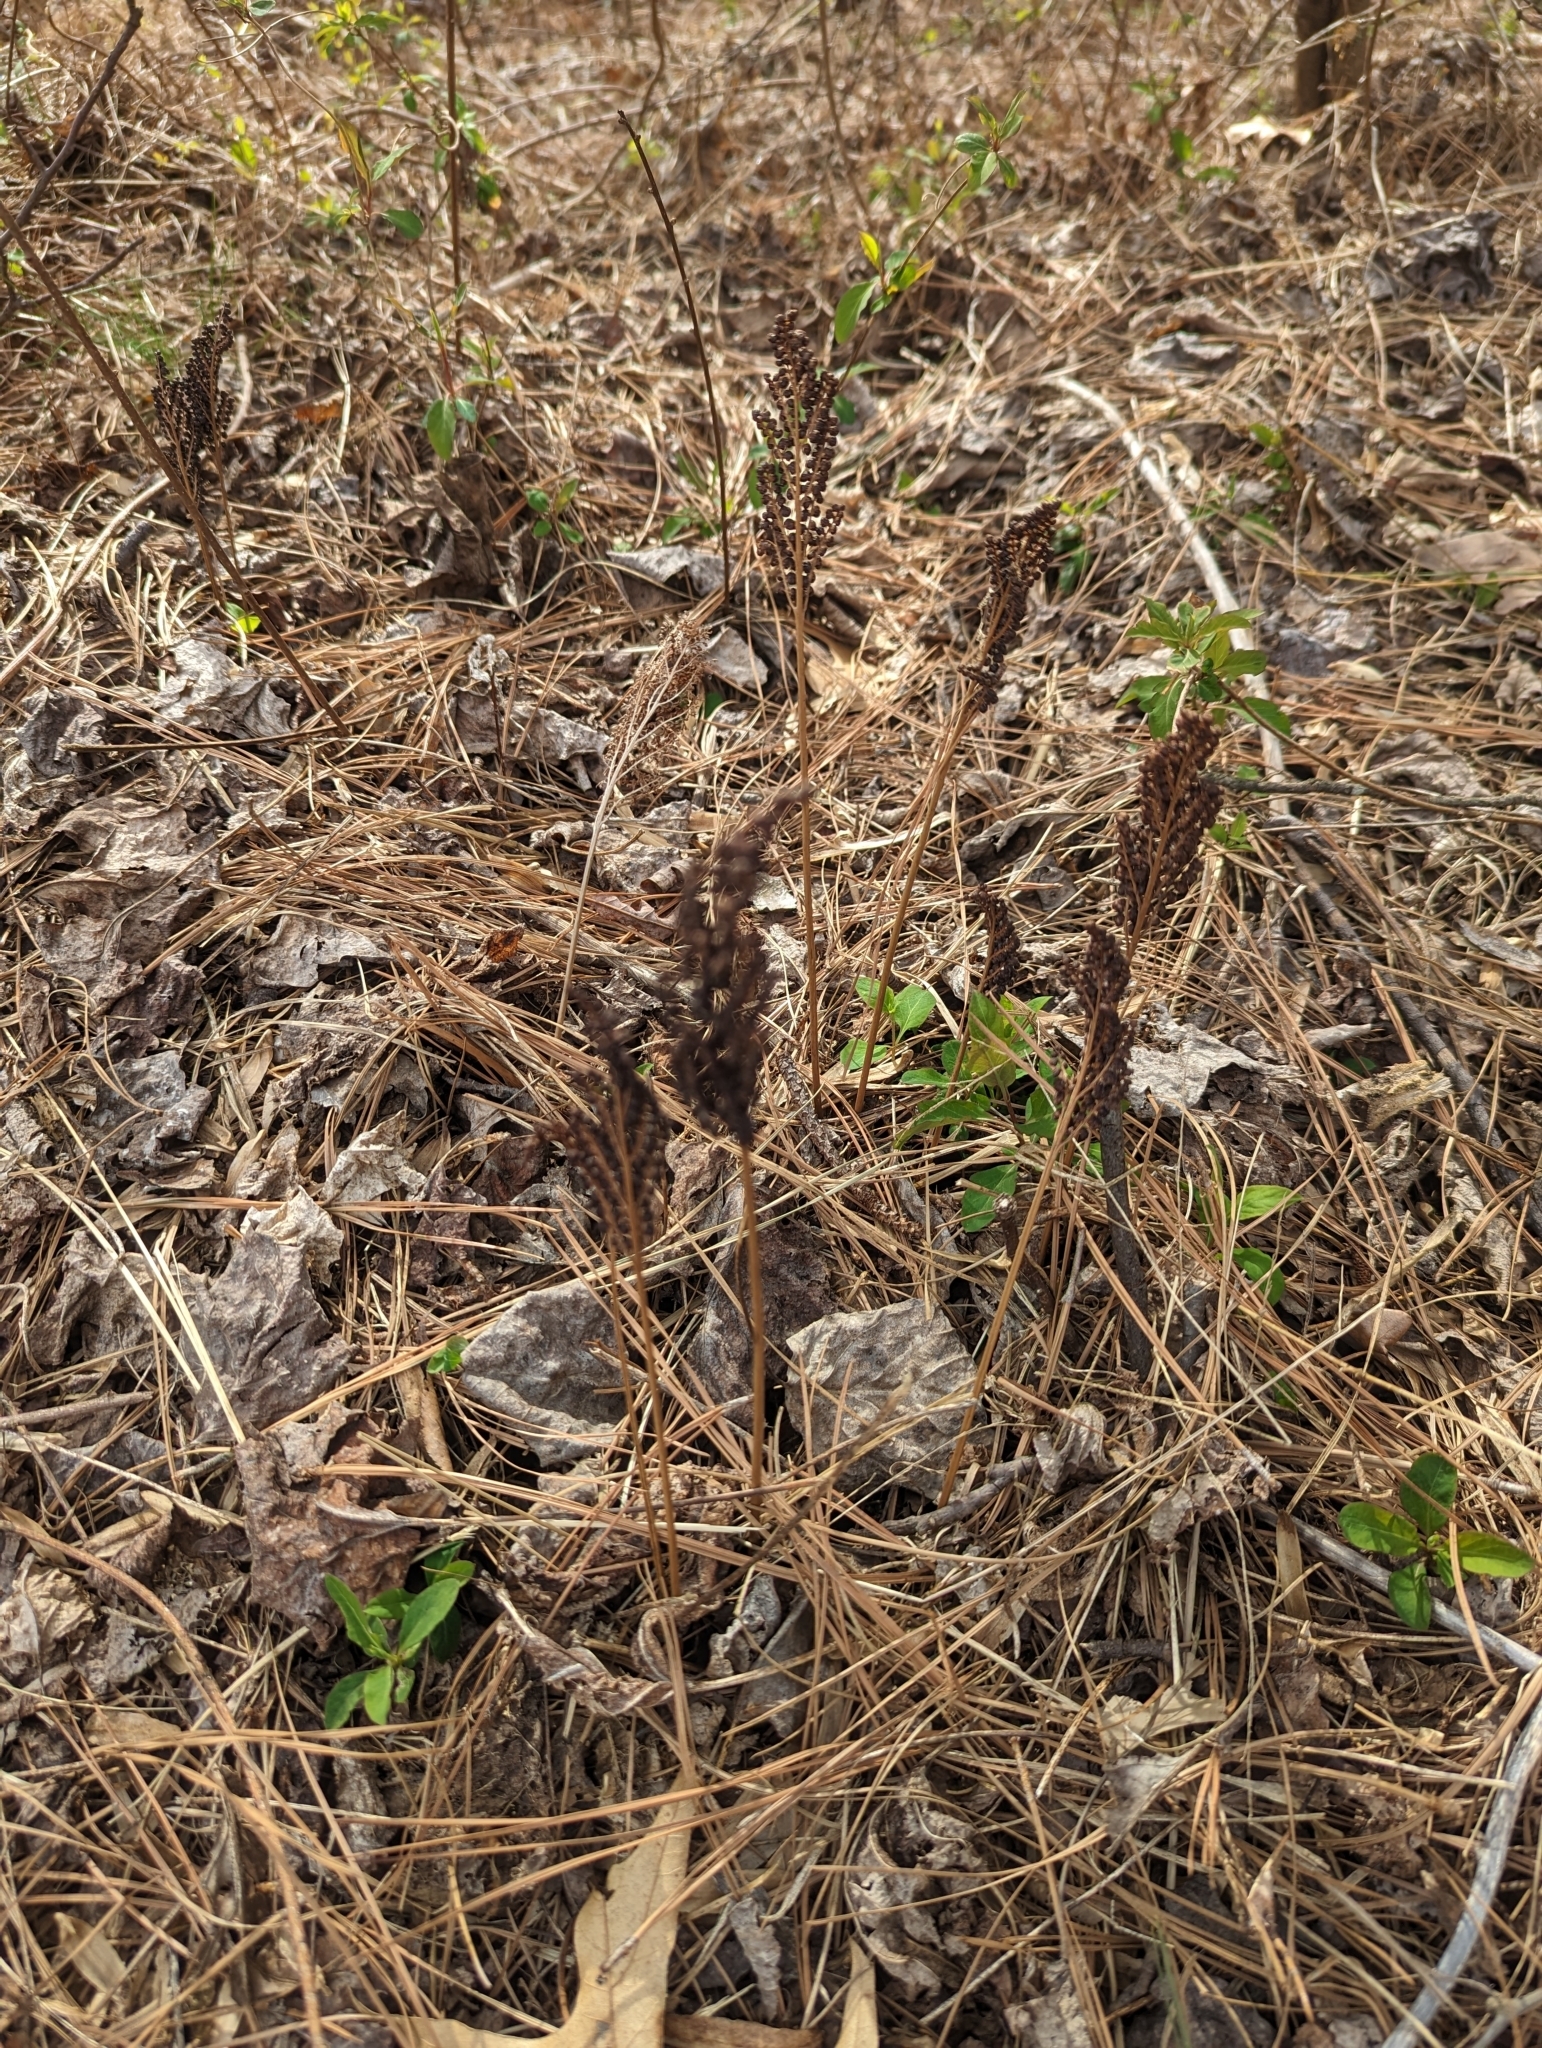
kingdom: Plantae
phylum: Tracheophyta
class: Polypodiopsida
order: Polypodiales
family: Onocleaceae
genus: Onoclea
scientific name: Onoclea sensibilis
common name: Sensitive fern
